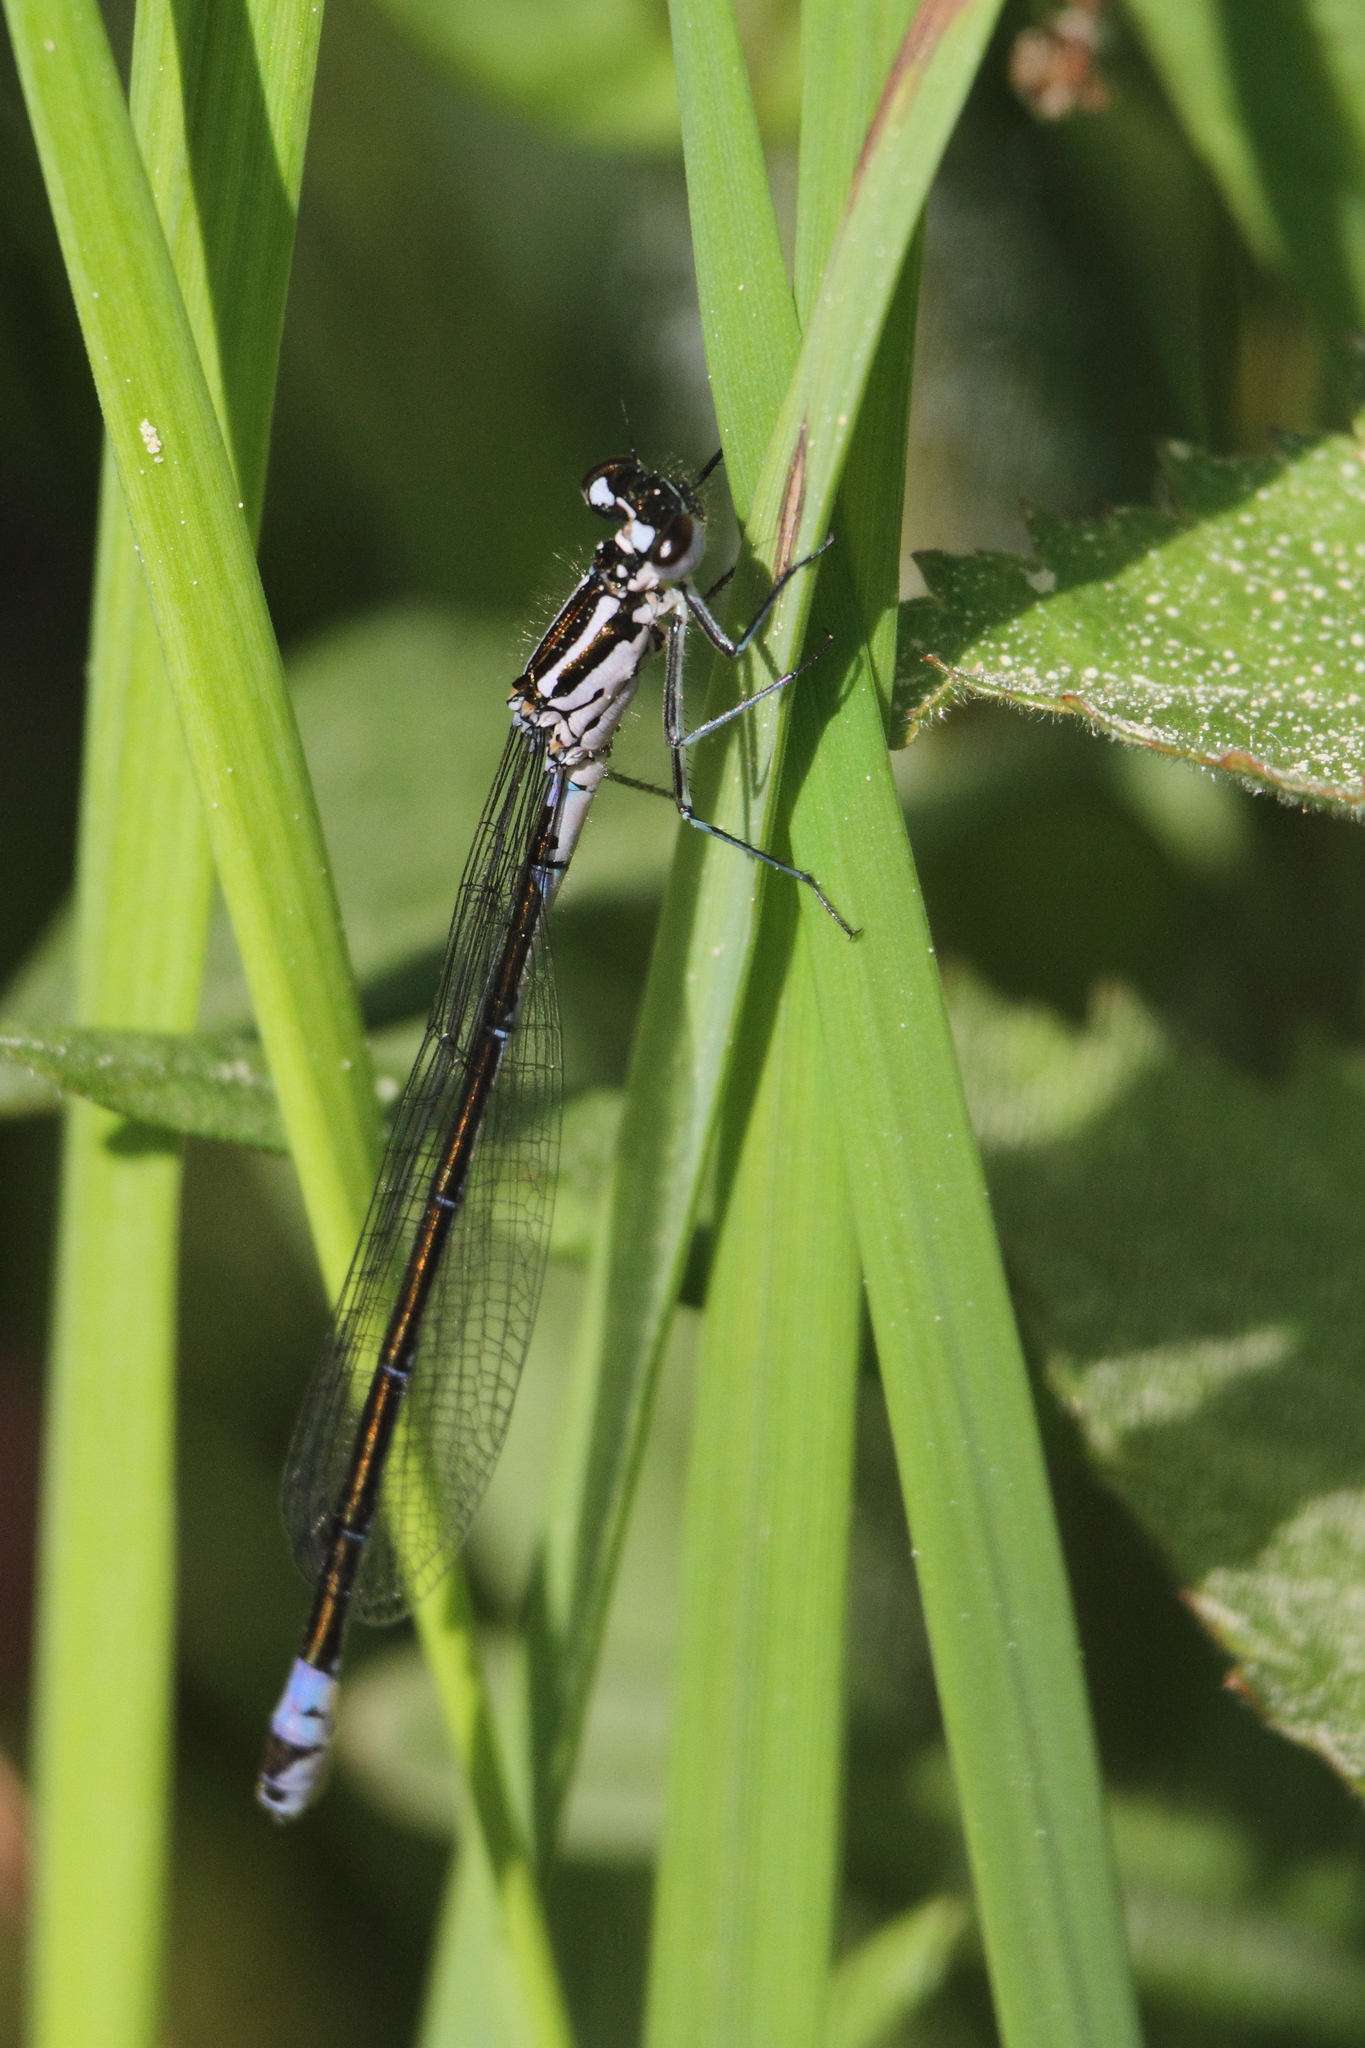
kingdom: Animalia
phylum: Arthropoda
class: Insecta
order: Odonata
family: Coenagrionidae
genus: Coenagrion
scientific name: Coenagrion pulchellum
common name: Variable bluet
